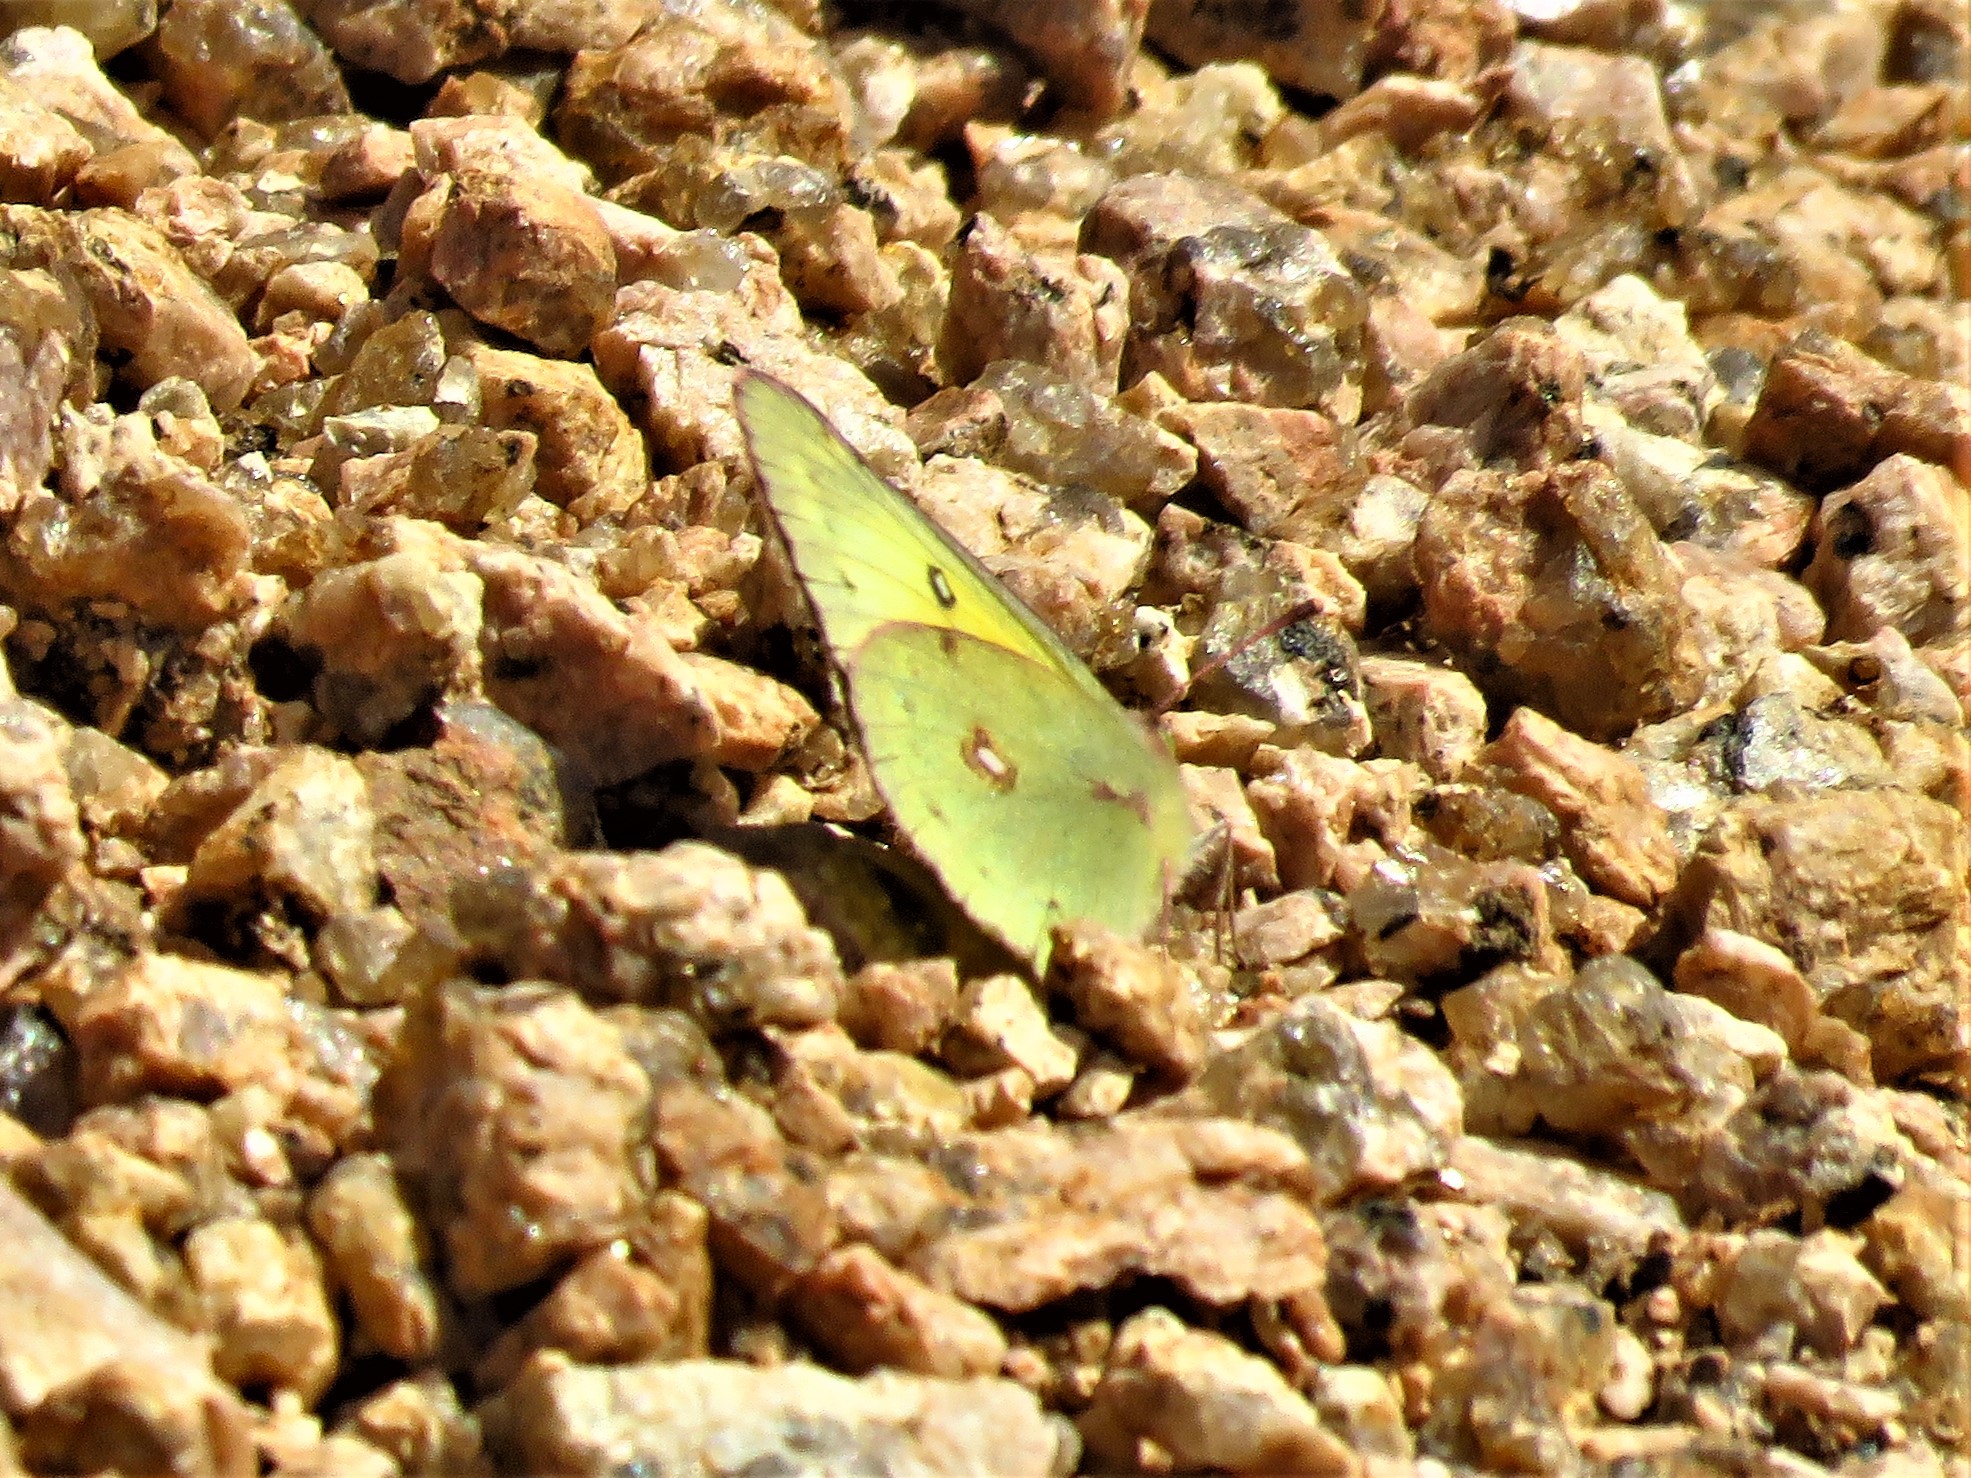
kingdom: Animalia
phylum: Arthropoda
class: Insecta
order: Lepidoptera
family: Pieridae
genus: Colias
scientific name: Colias eurytheme
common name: Alfalfa butterfly
